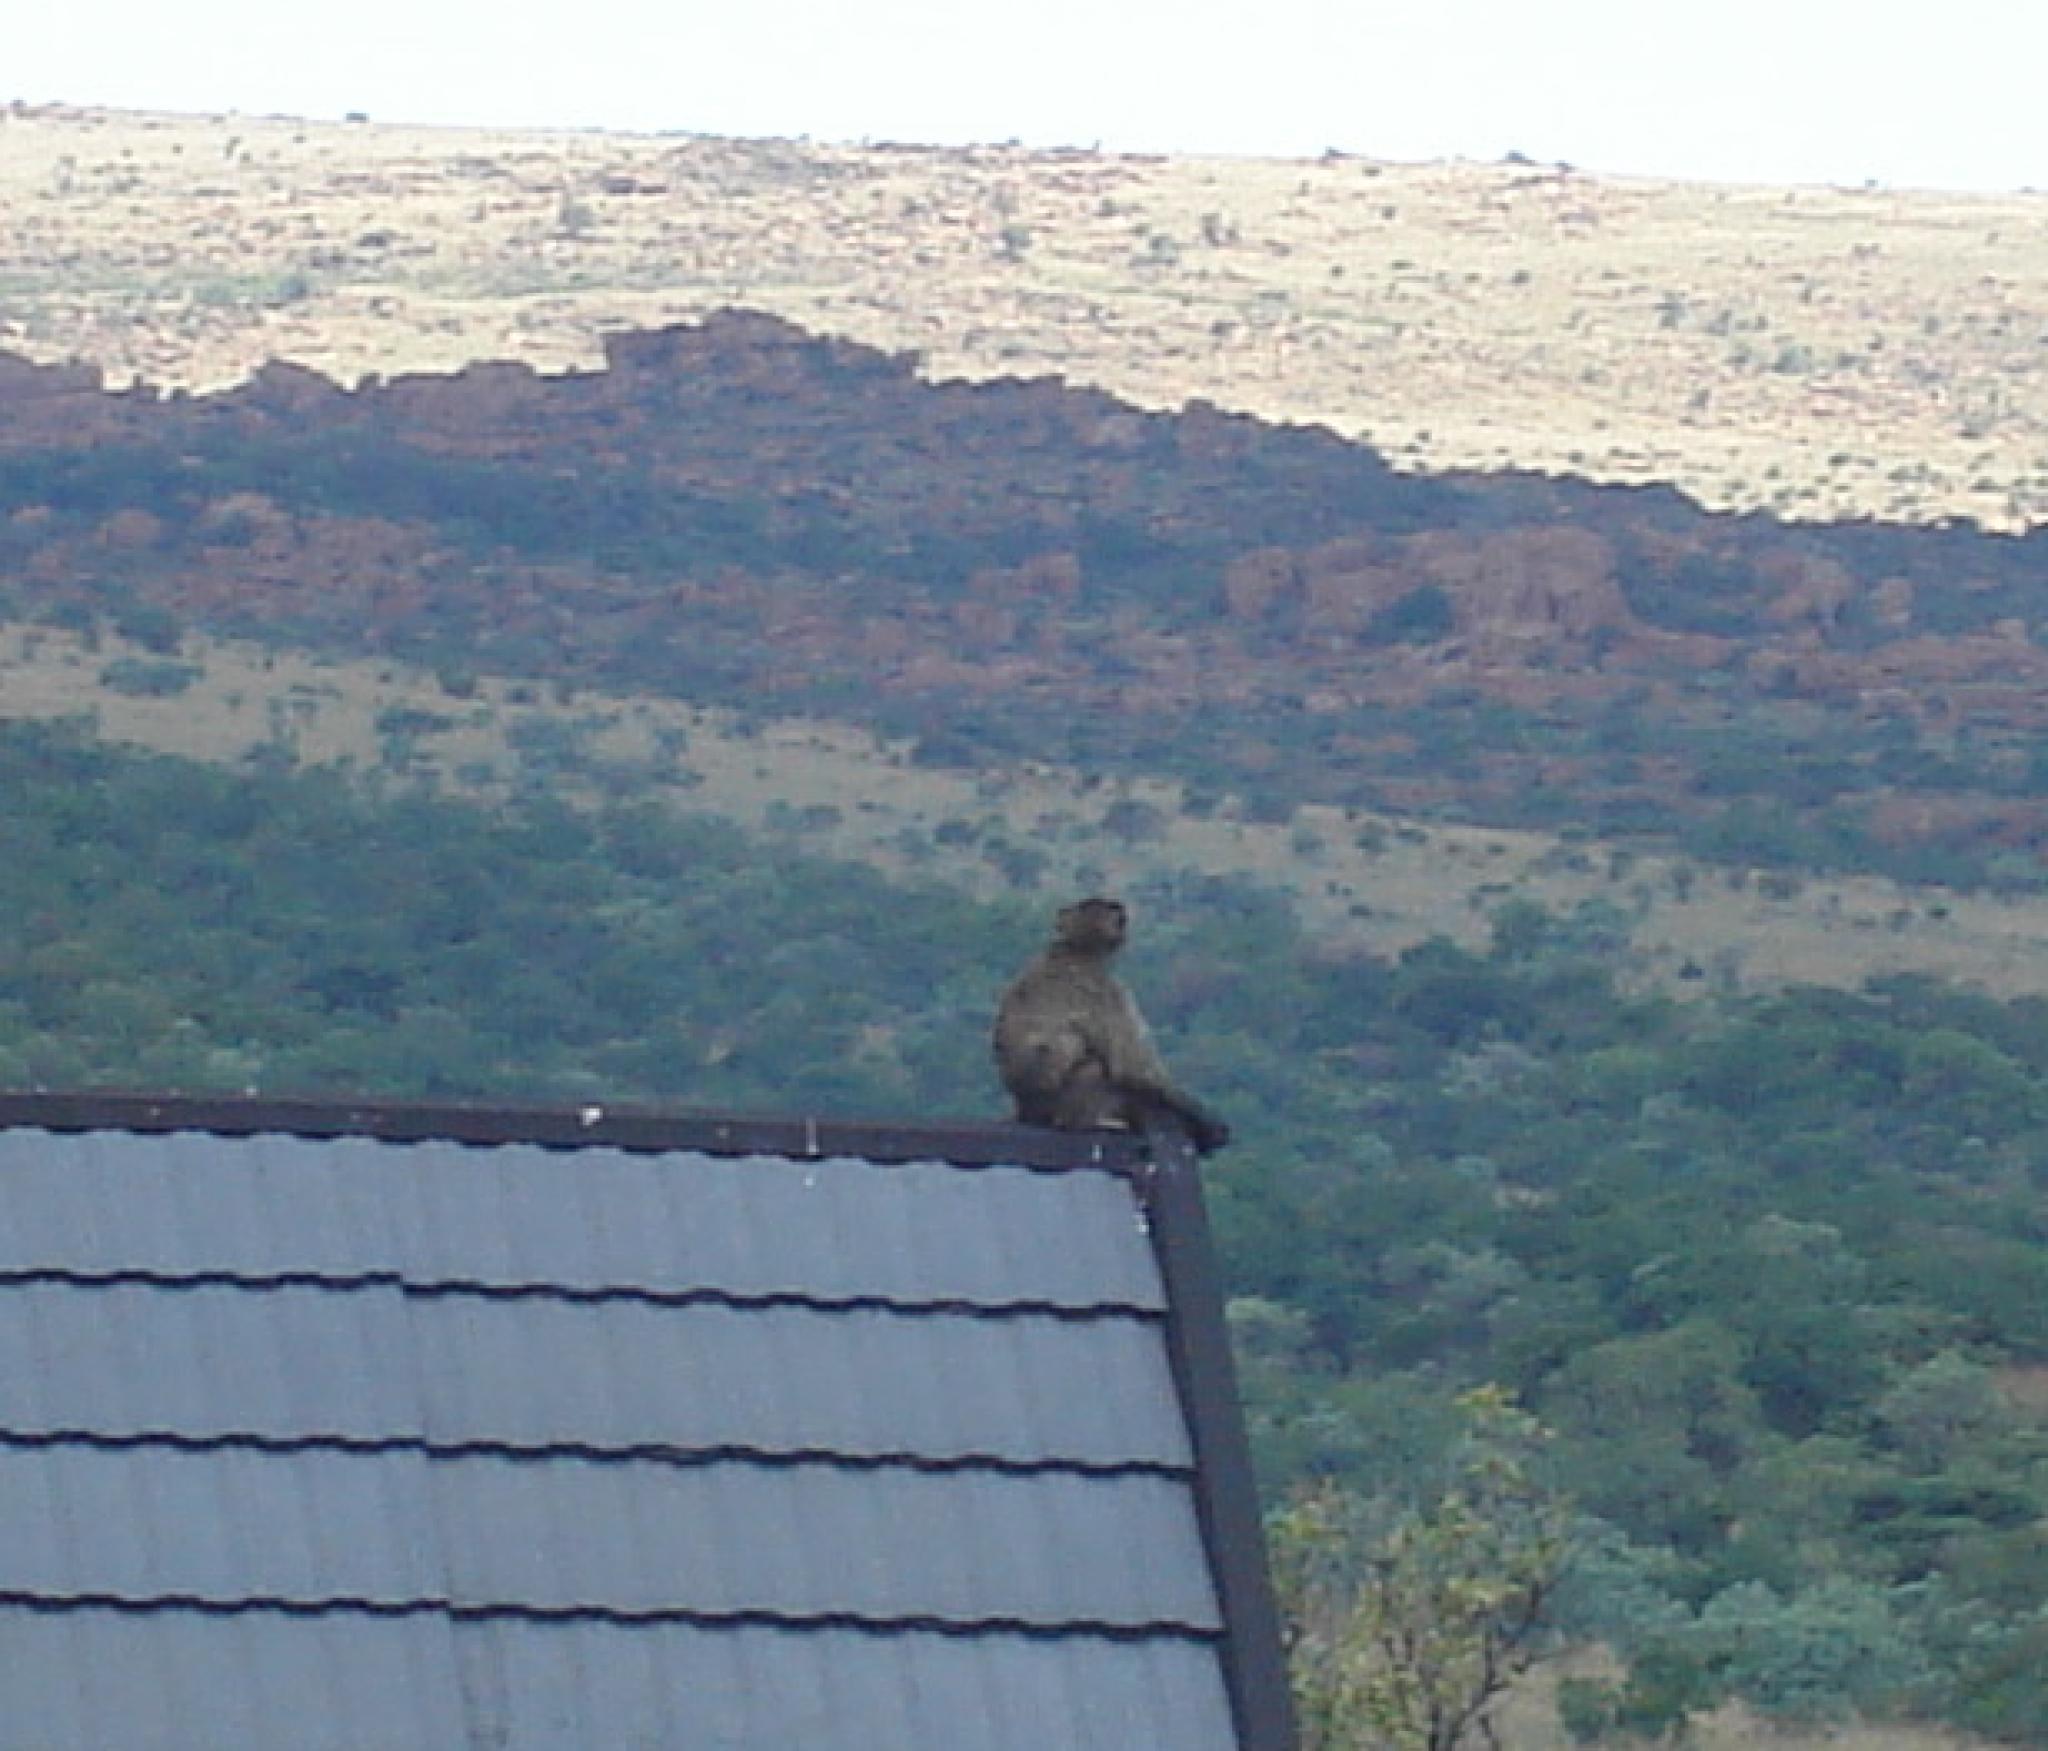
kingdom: Animalia
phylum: Chordata
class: Mammalia
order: Primates
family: Cercopithecidae
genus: Papio
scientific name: Papio ursinus
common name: Chacma baboon
